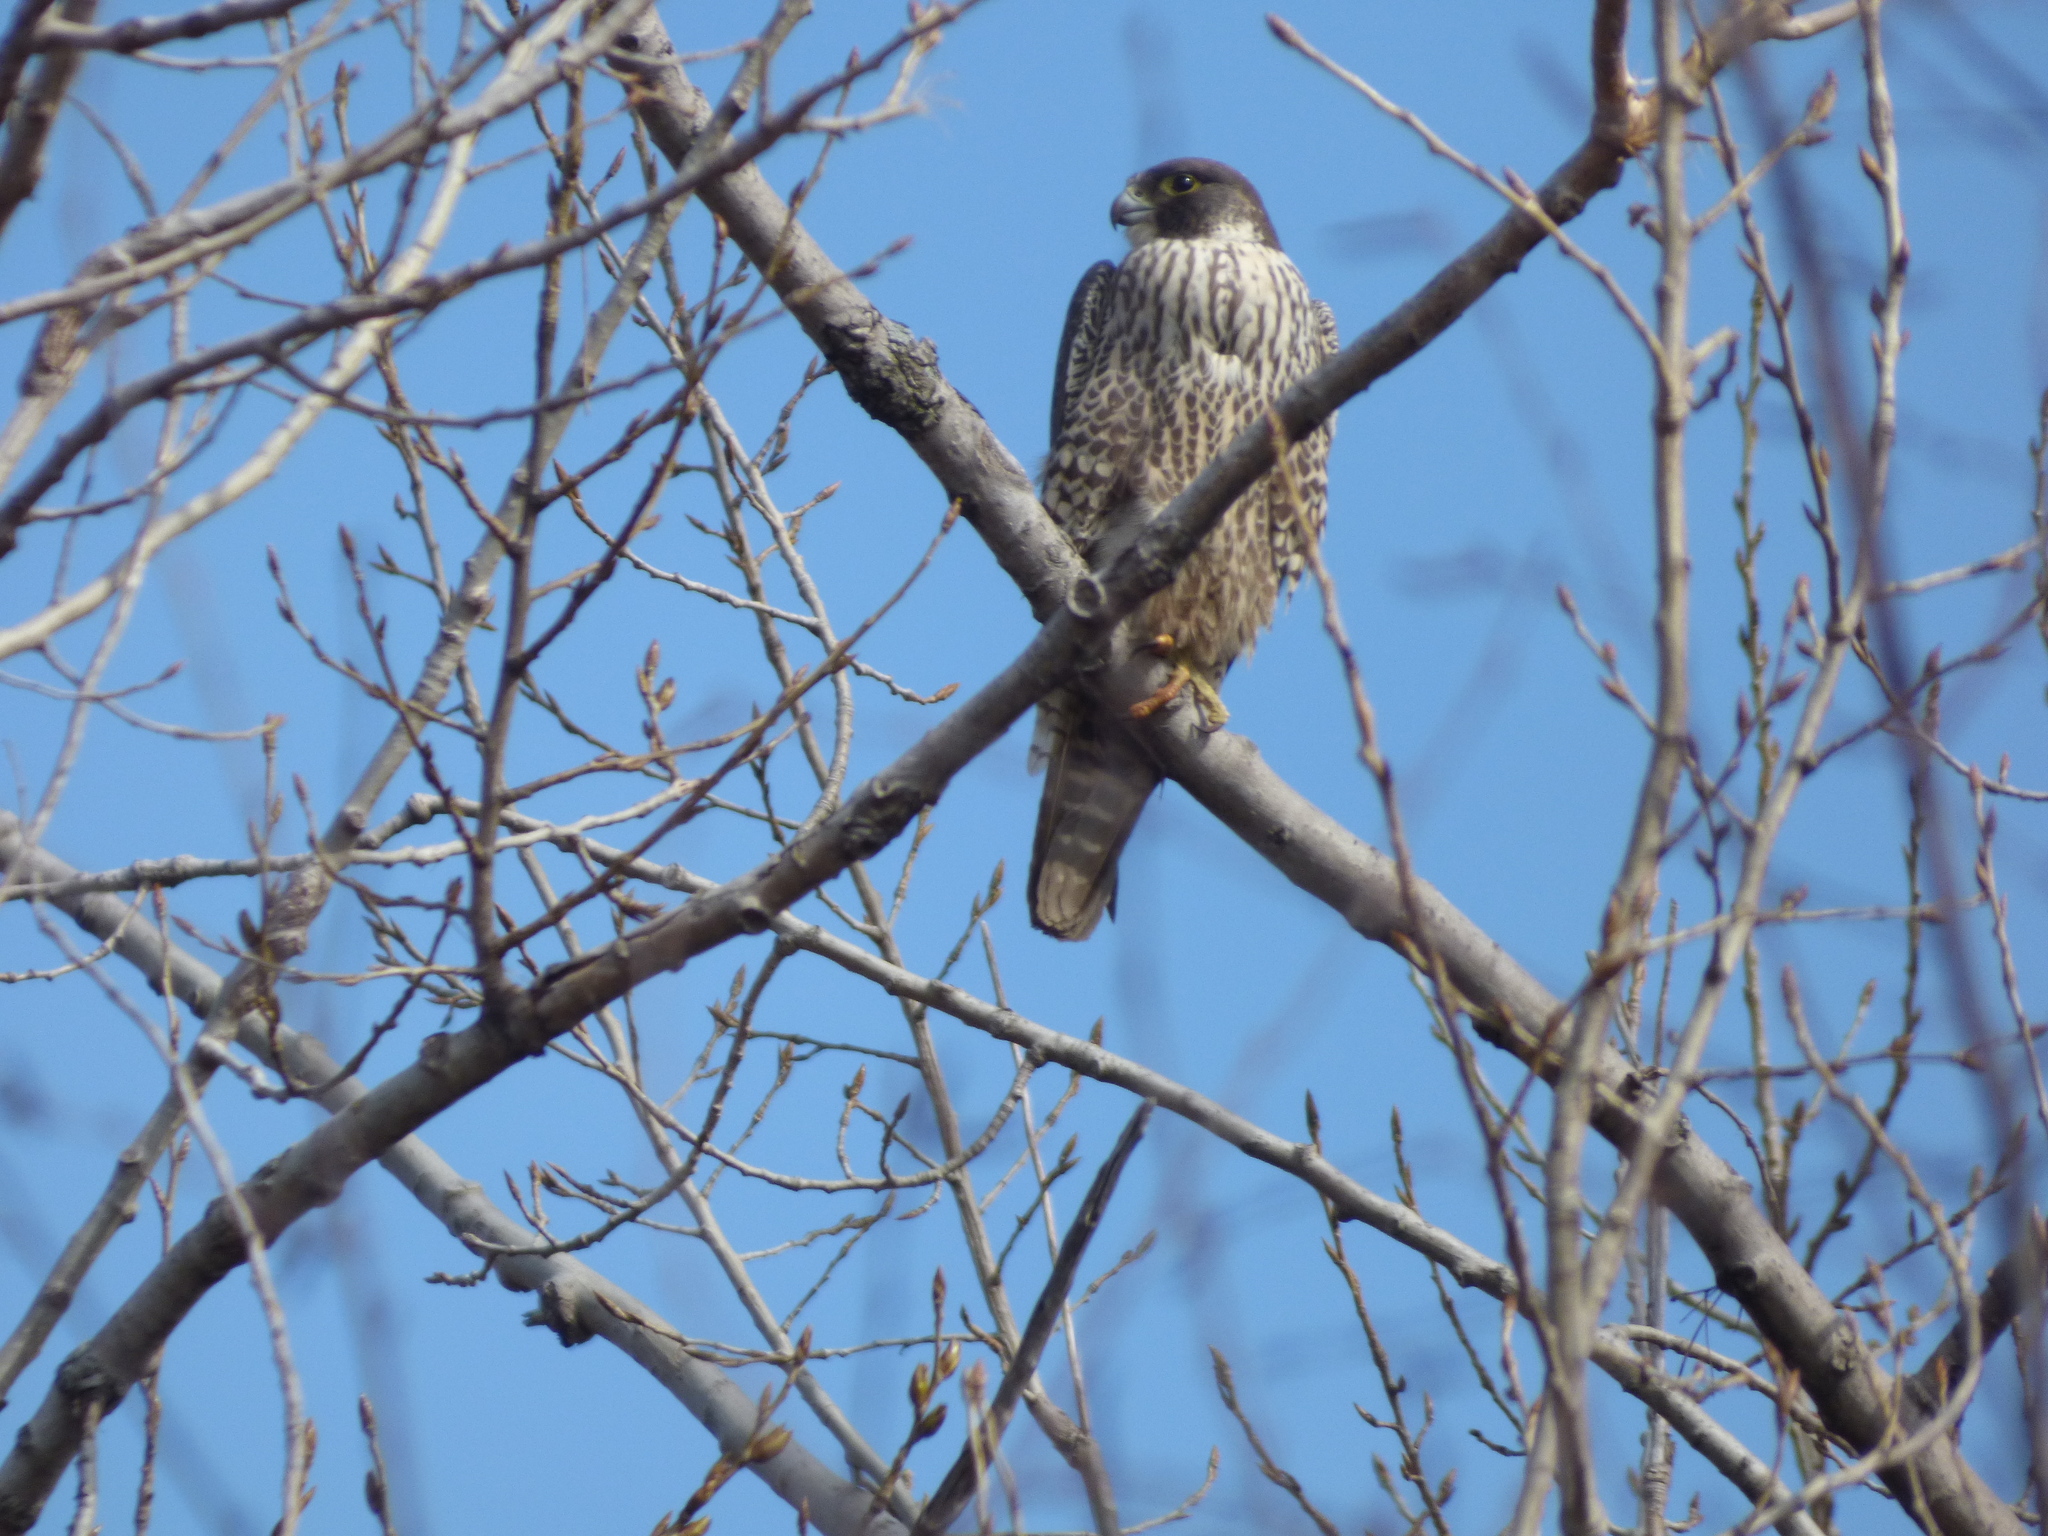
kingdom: Animalia
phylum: Chordata
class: Aves
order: Falconiformes
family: Falconidae
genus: Falco
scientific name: Falco peregrinus
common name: Peregrine falcon
